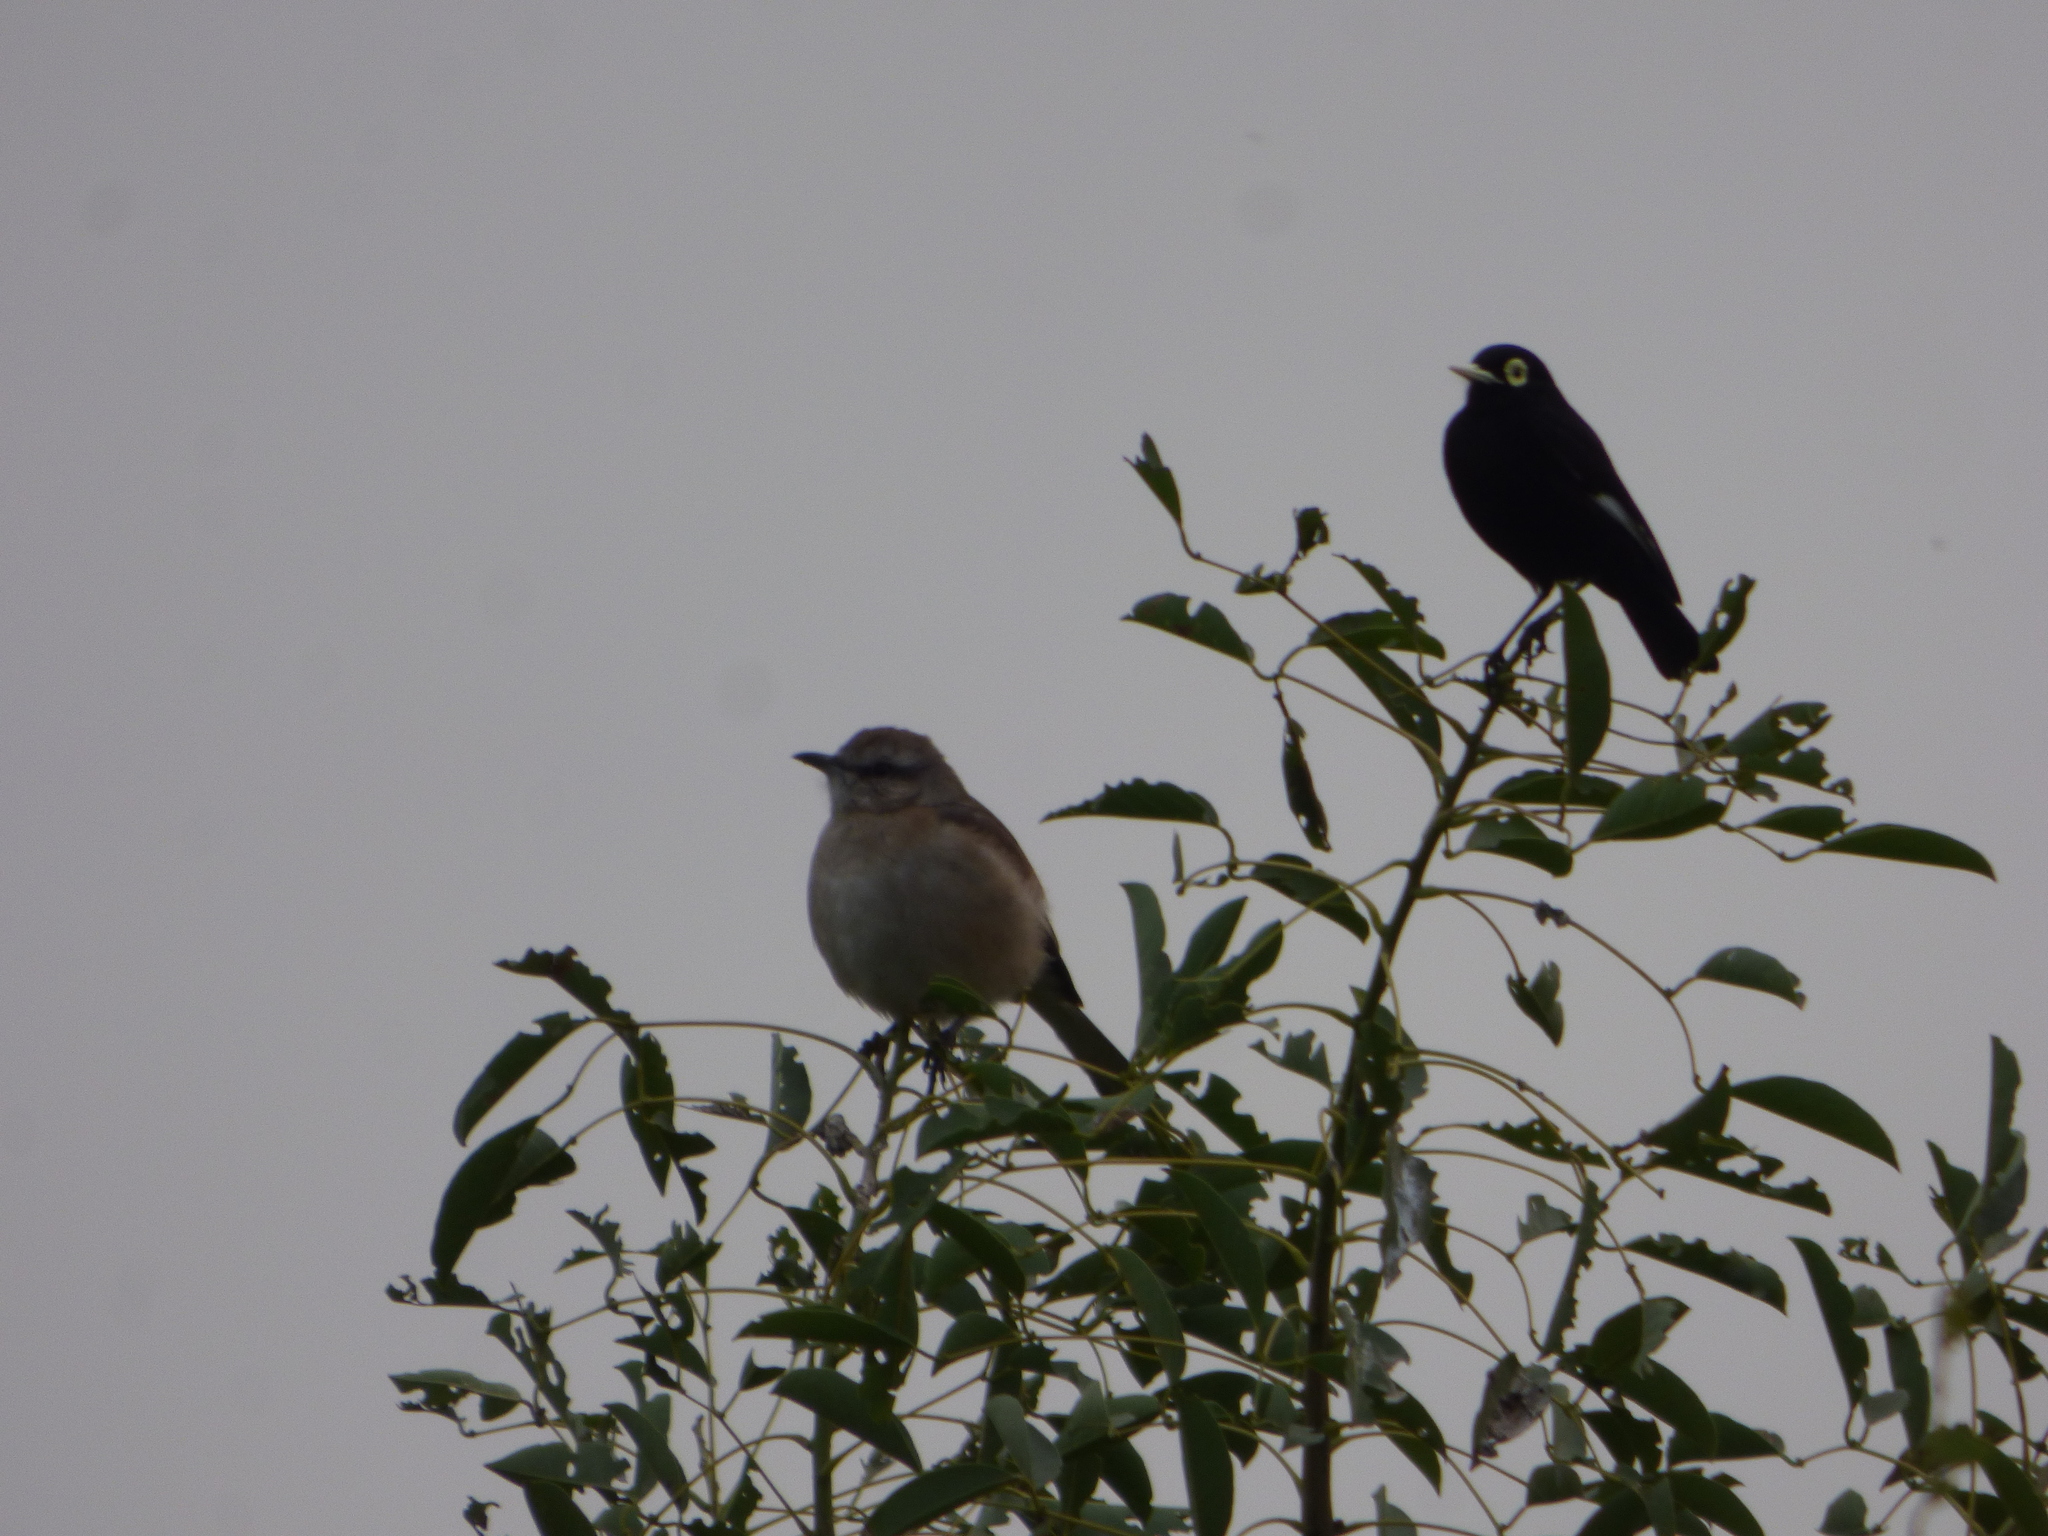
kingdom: Animalia
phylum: Chordata
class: Aves
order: Passeriformes
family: Mimidae
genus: Mimus
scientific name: Mimus triurus
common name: White-banded mockingbird
